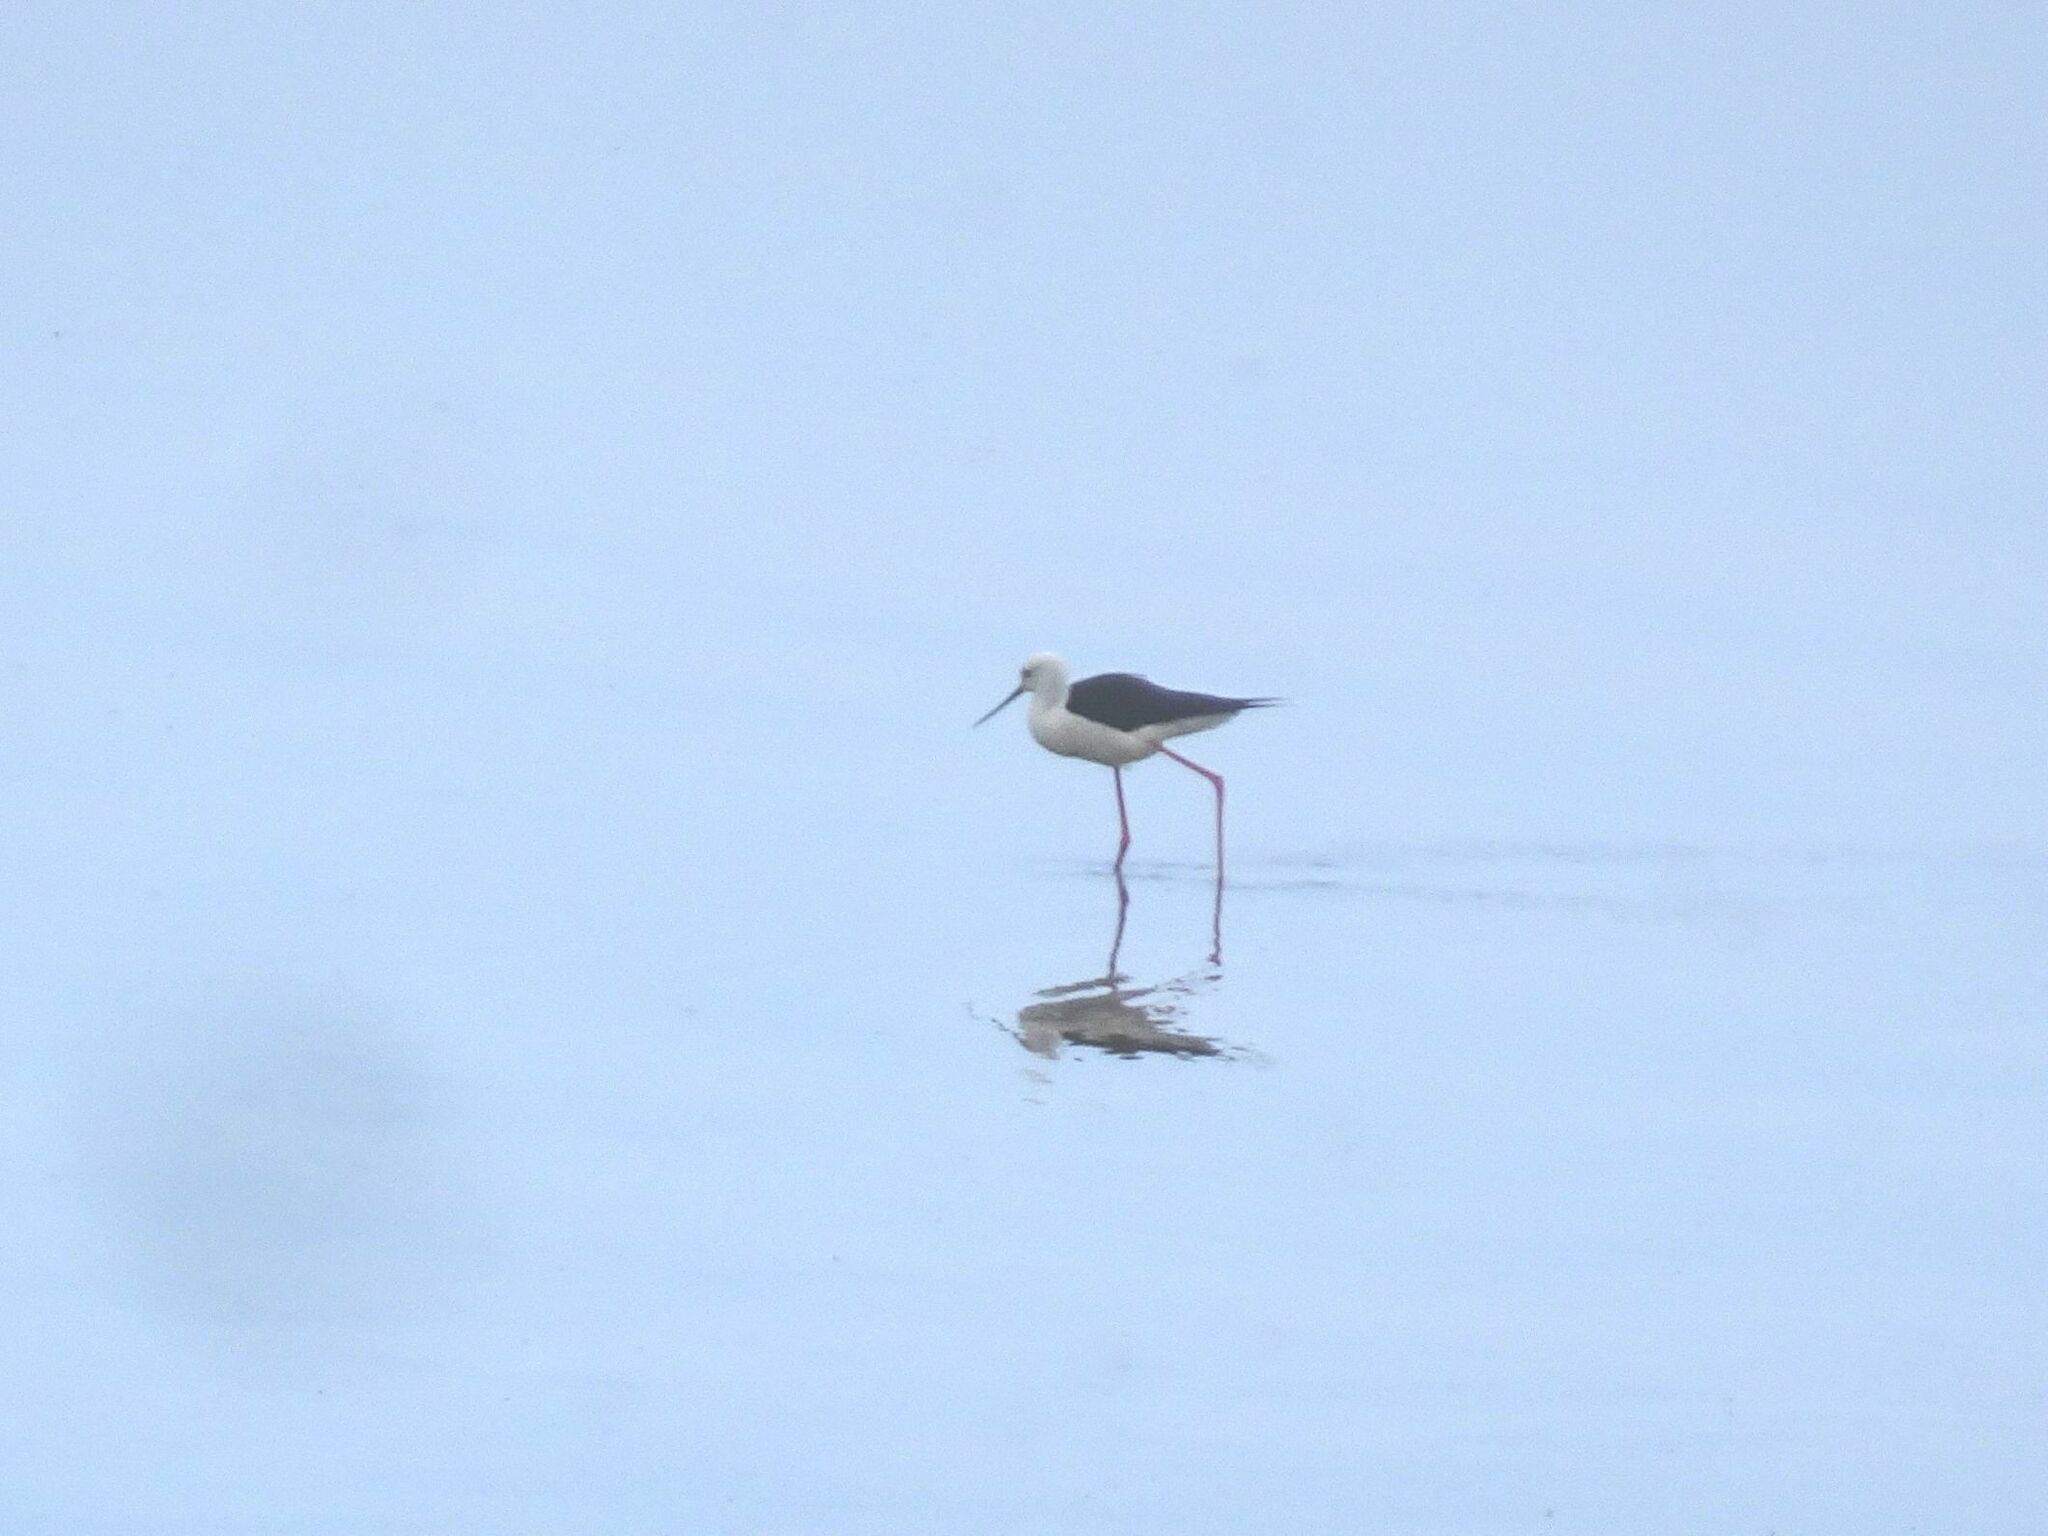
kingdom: Animalia
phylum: Chordata
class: Aves
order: Charadriiformes
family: Recurvirostridae
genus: Himantopus
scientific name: Himantopus himantopus
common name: Black-winged stilt
